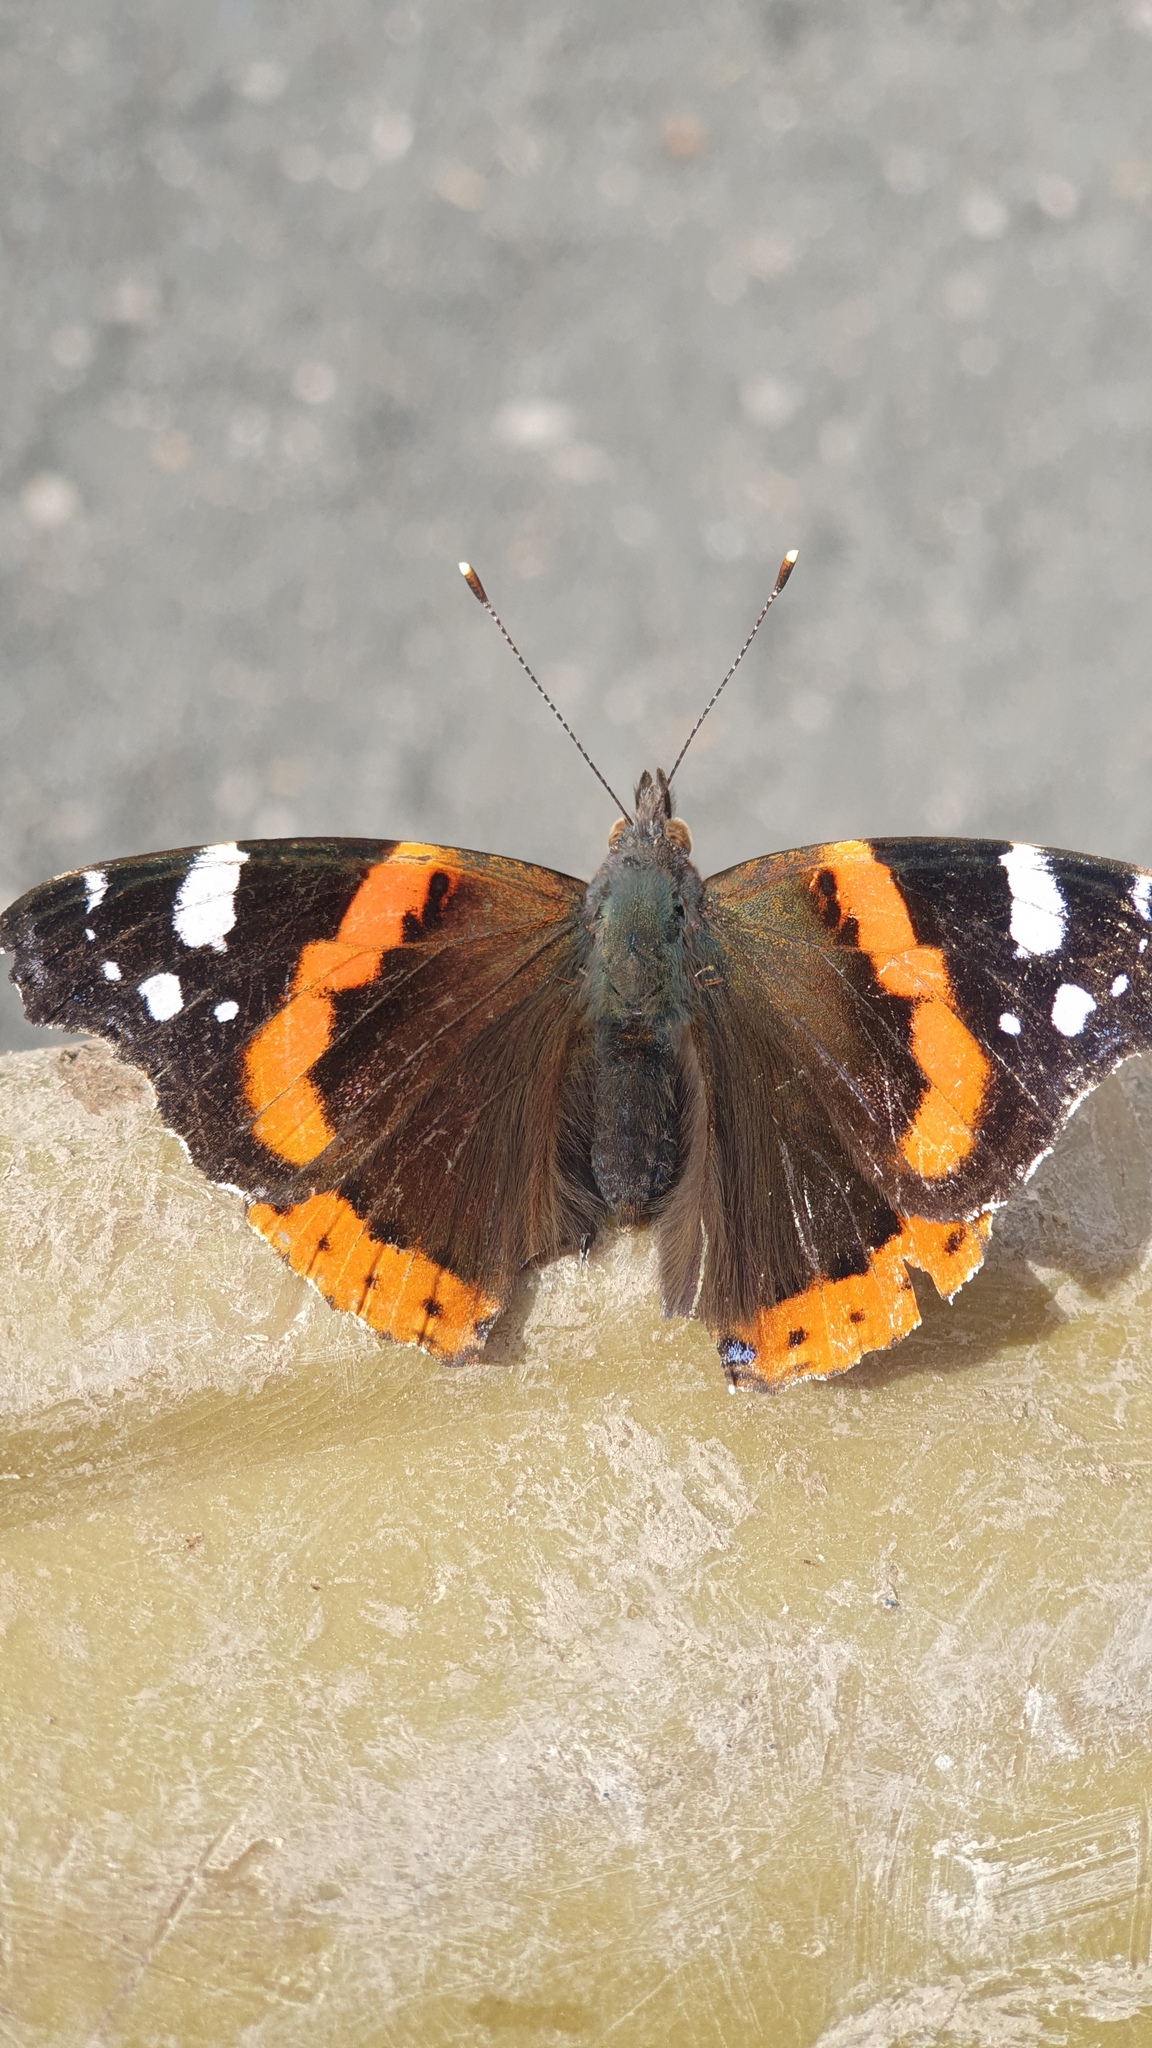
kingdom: Animalia
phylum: Arthropoda
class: Insecta
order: Lepidoptera
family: Nymphalidae
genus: Vanessa
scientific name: Vanessa atalanta
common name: Red admiral
